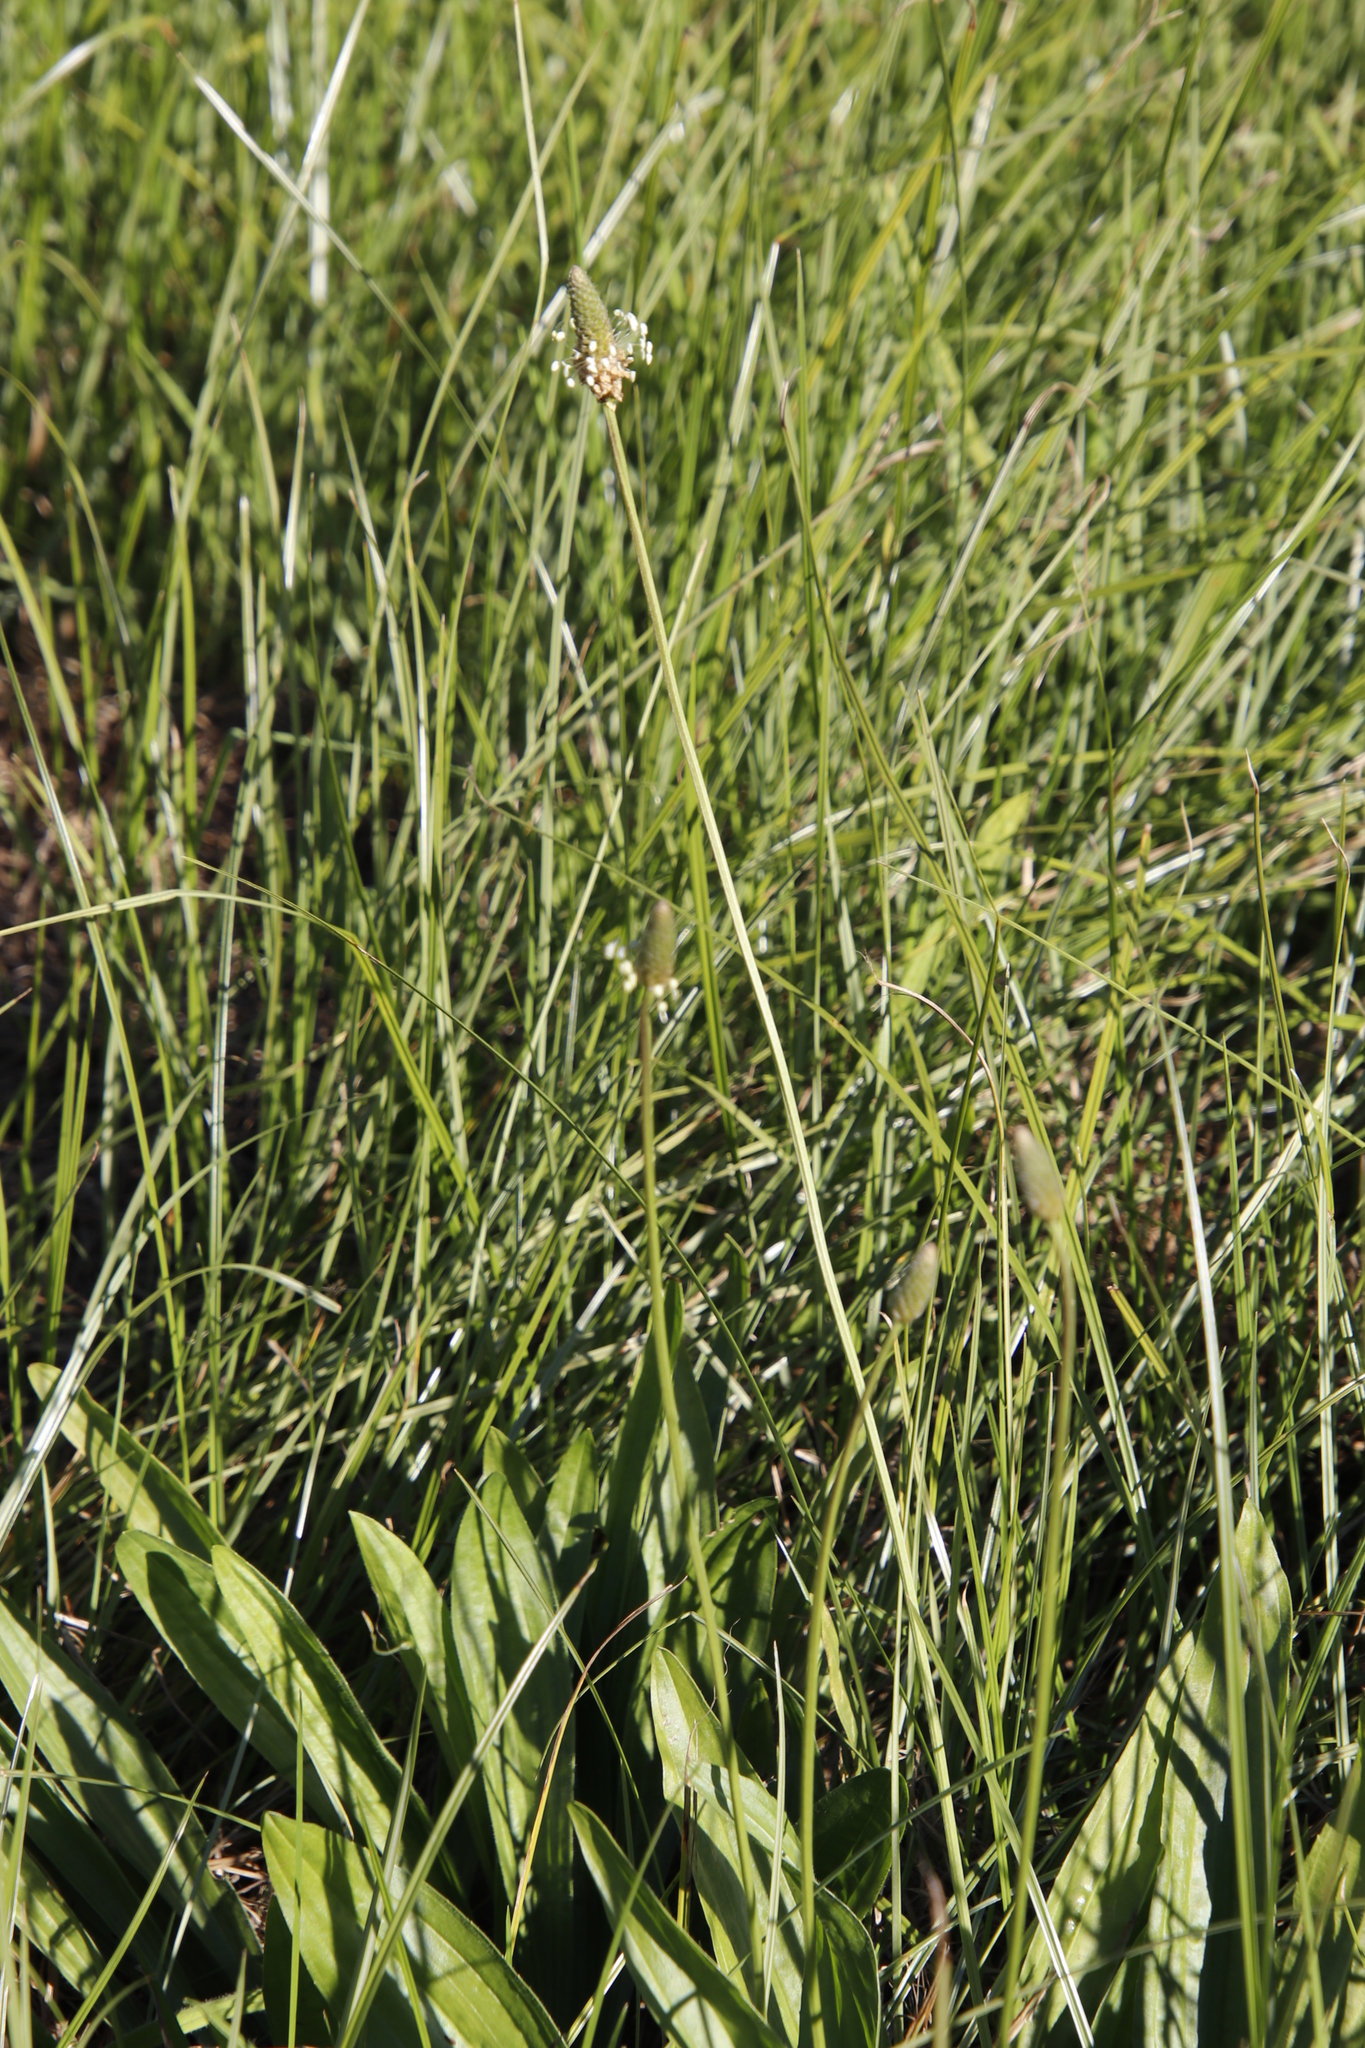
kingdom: Plantae
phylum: Tracheophyta
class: Magnoliopsida
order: Lamiales
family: Plantaginaceae
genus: Plantago
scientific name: Plantago lanceolata
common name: Ribwort plantain
